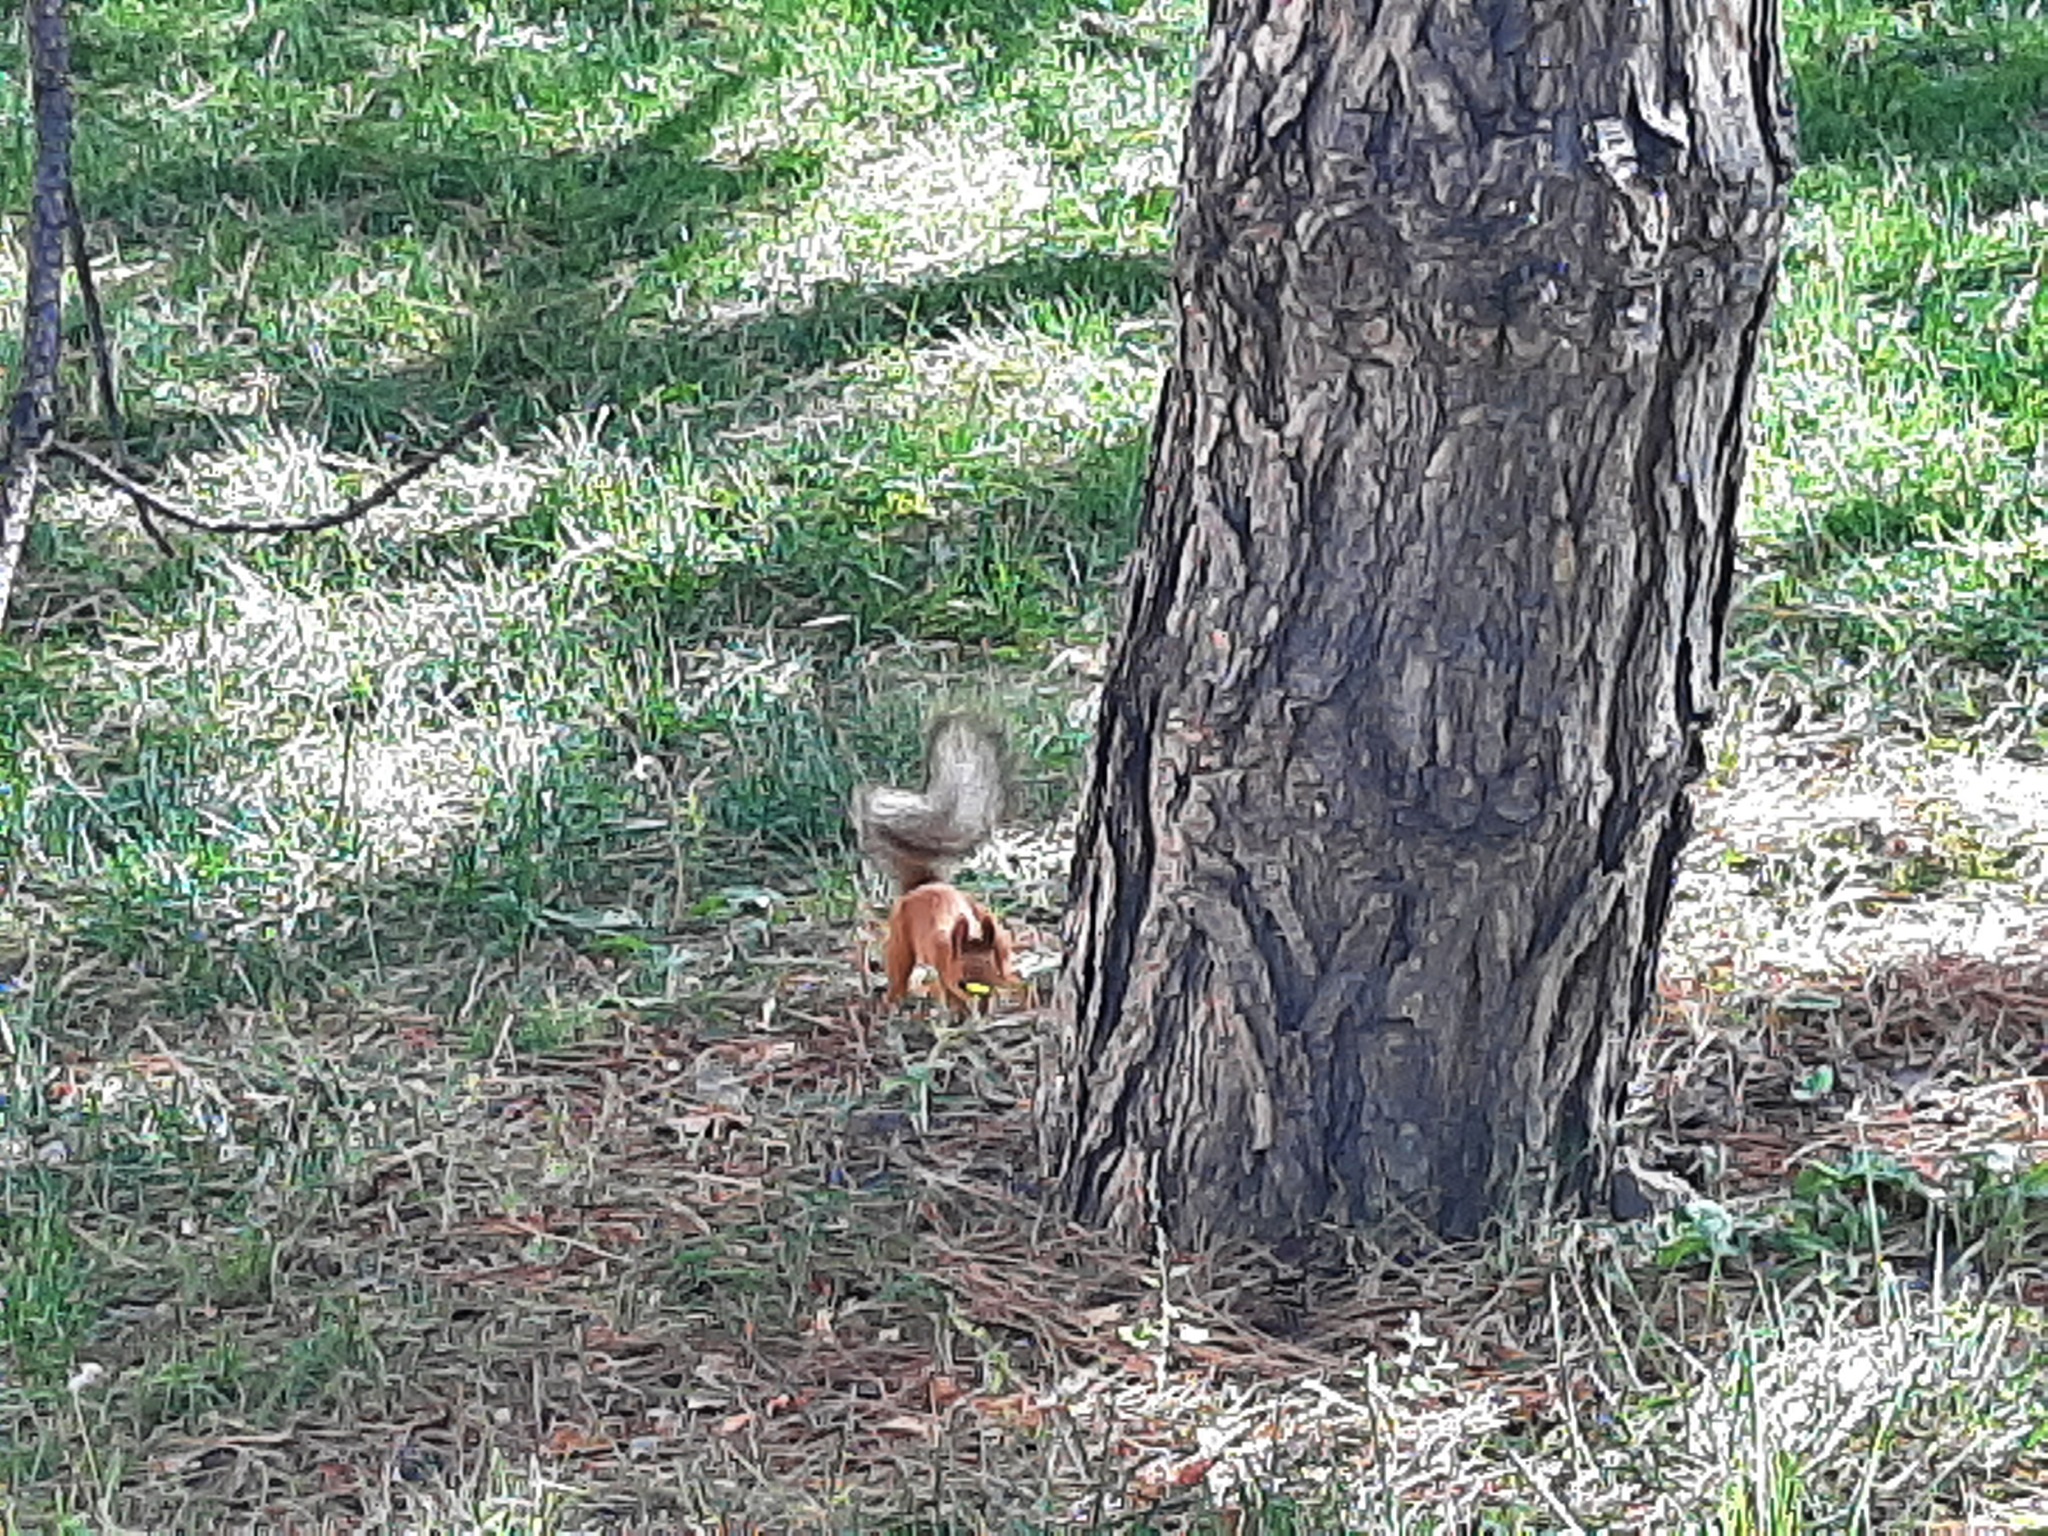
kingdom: Animalia
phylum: Chordata
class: Mammalia
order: Rodentia
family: Sciuridae
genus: Sciurus
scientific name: Sciurus vulgaris
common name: Eurasian red squirrel
